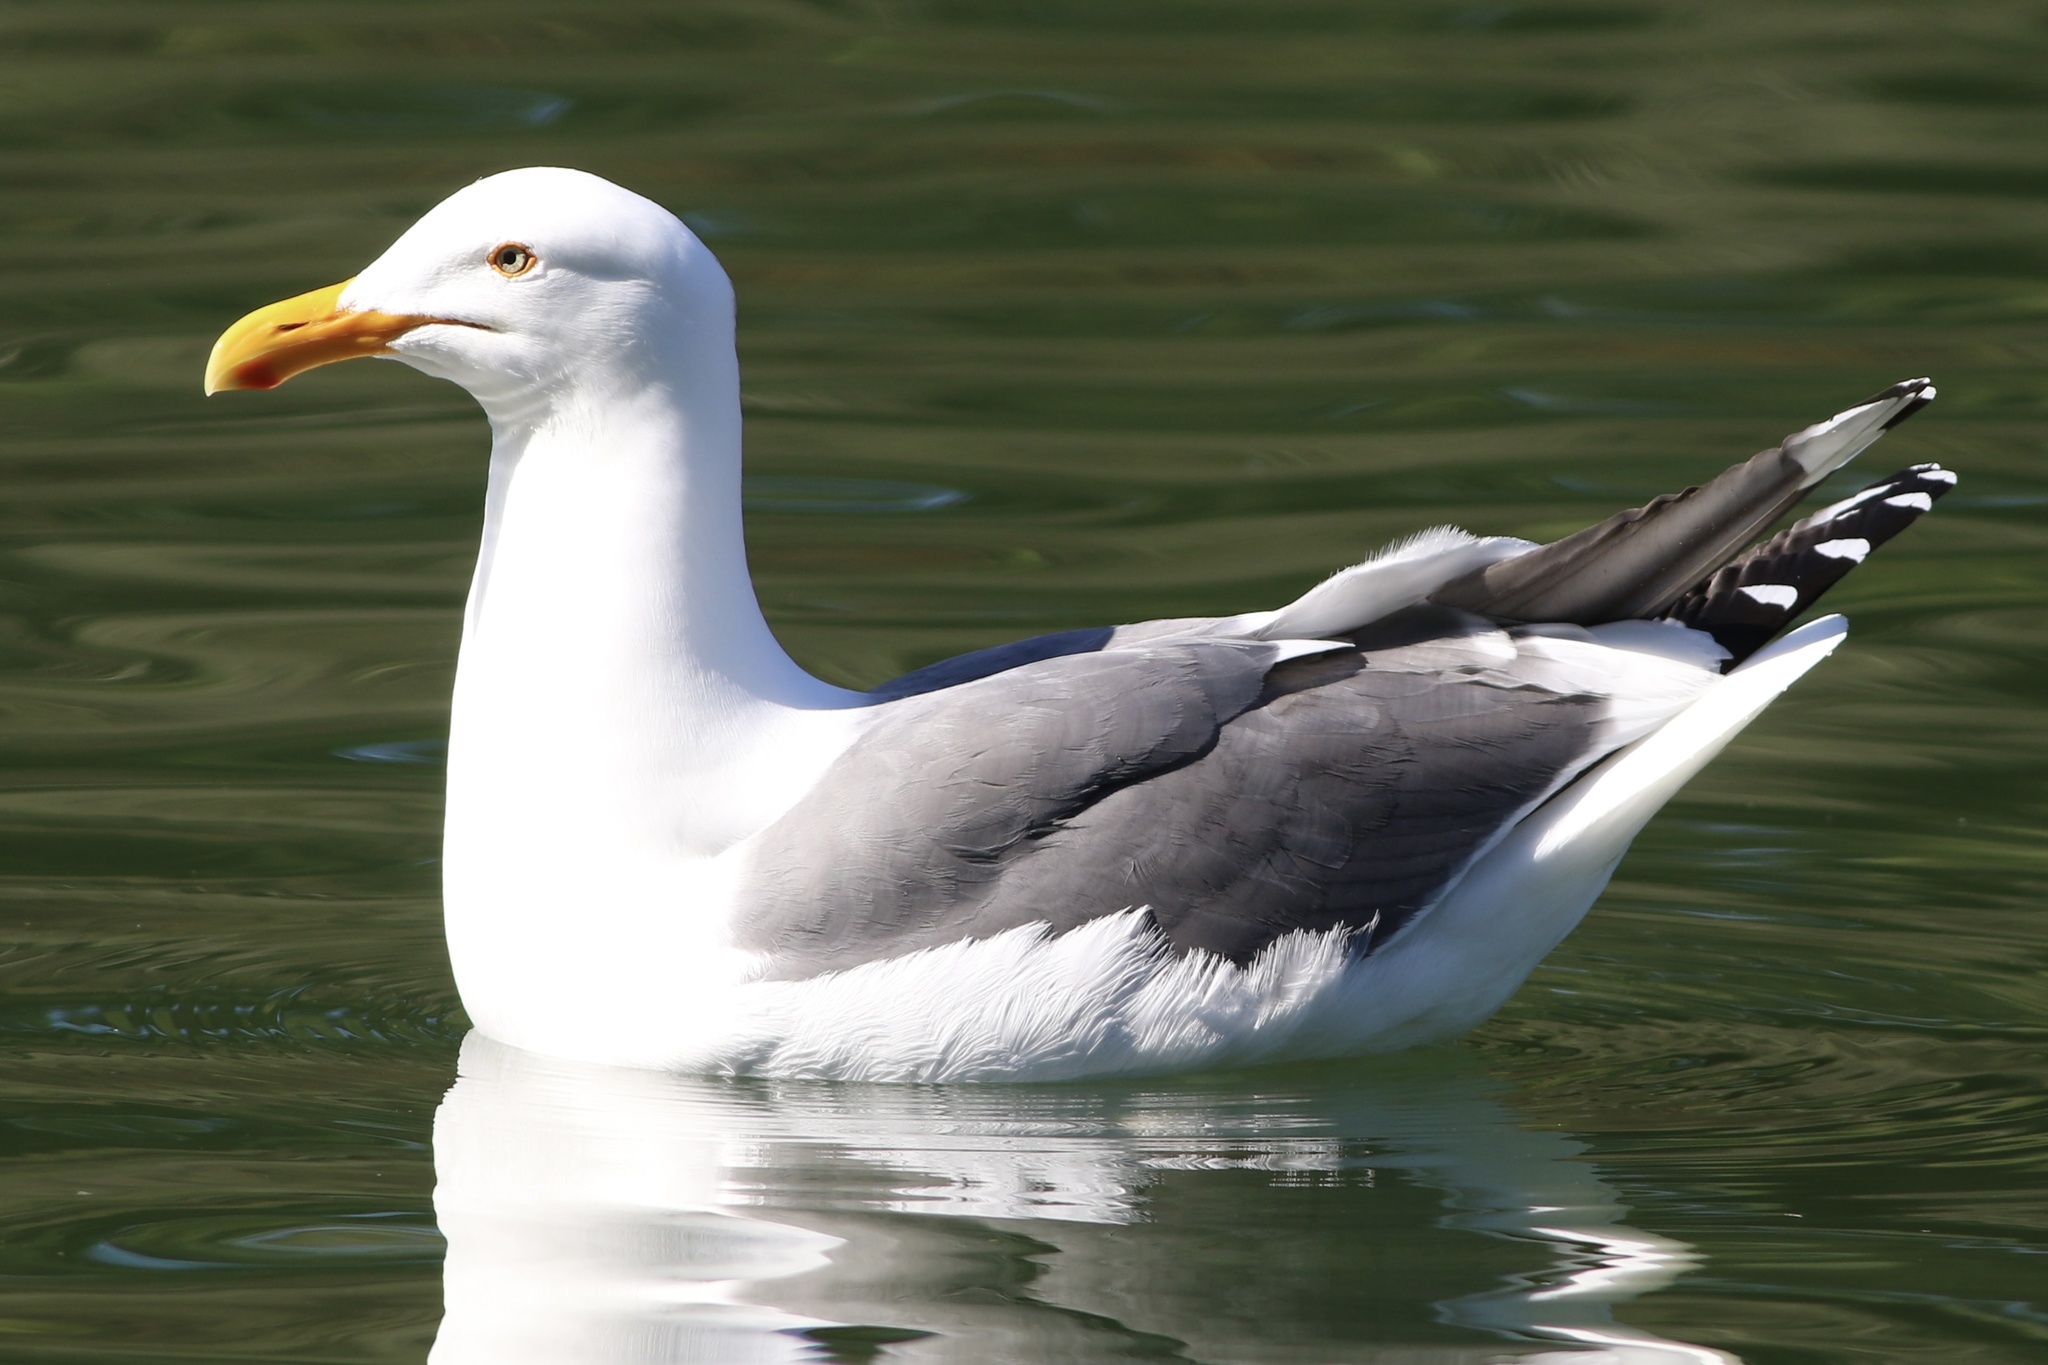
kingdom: Animalia
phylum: Chordata
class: Aves
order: Charadriiformes
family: Laridae
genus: Larus
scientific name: Larus occidentalis
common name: Western gull
